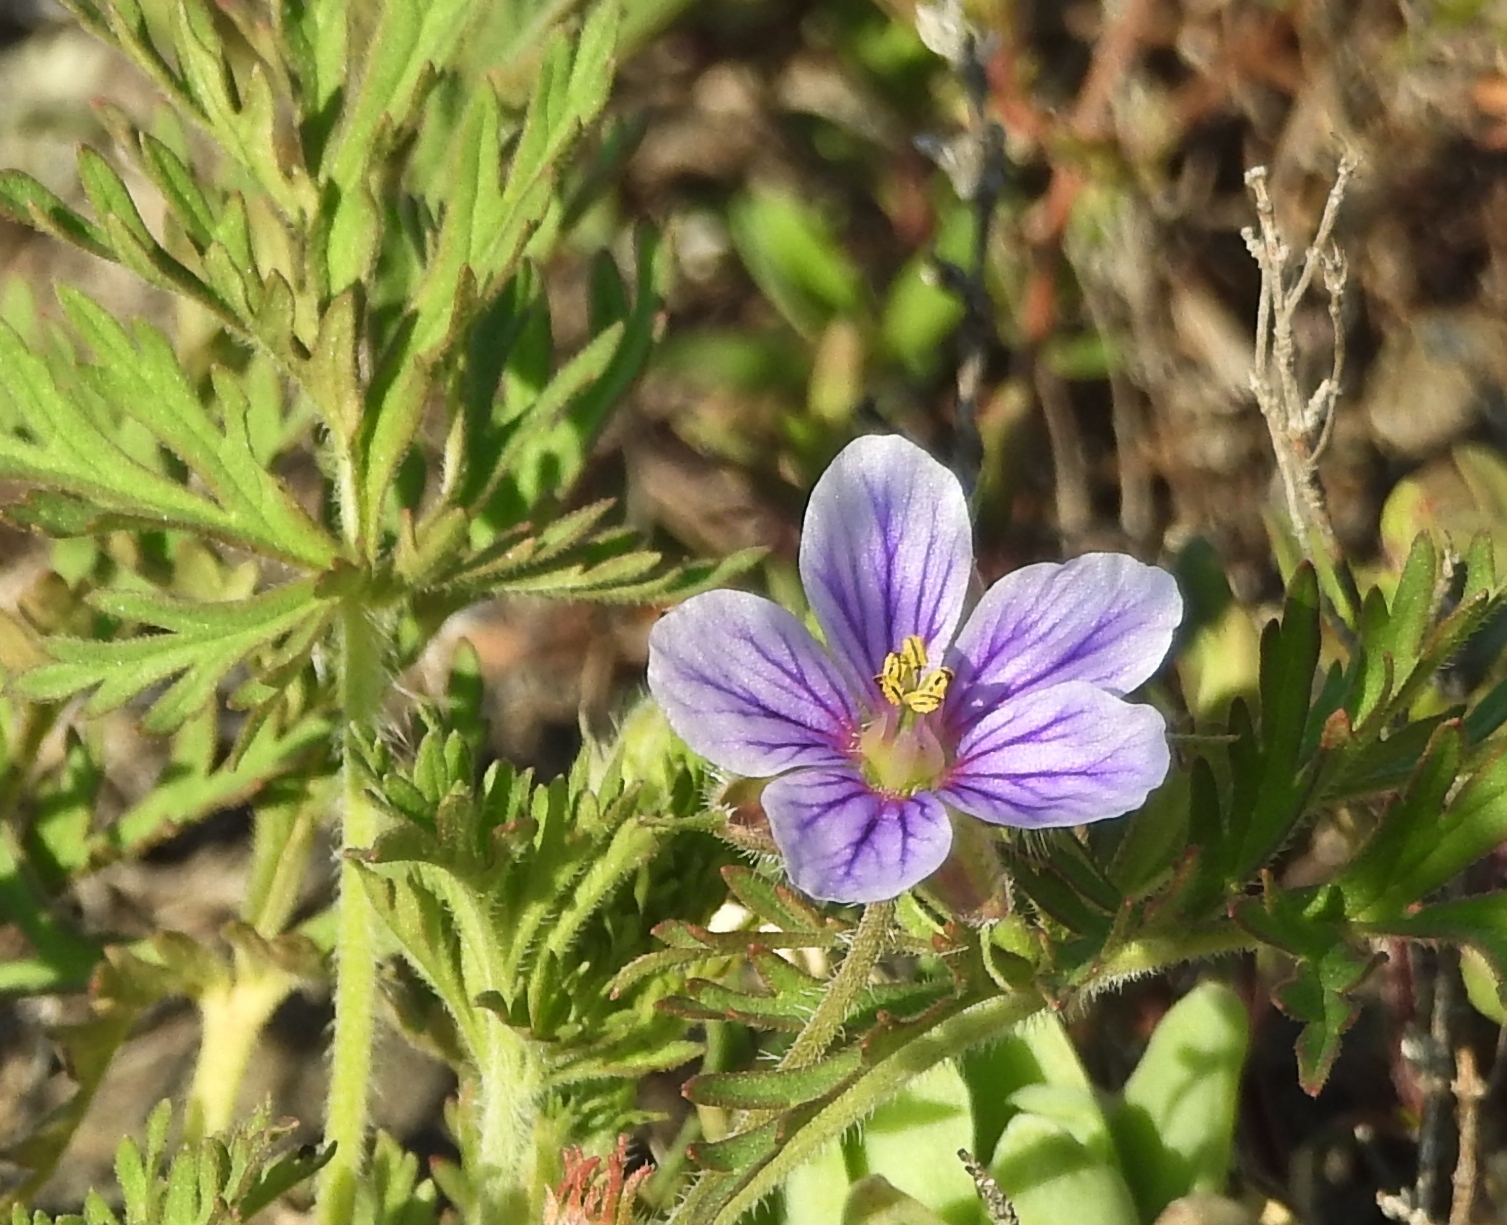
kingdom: Plantae
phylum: Tracheophyta
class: Magnoliopsida
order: Geraniales
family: Geraniaceae
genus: Erodium
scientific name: Erodium stephanianum
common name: Stephen's stork's bill
